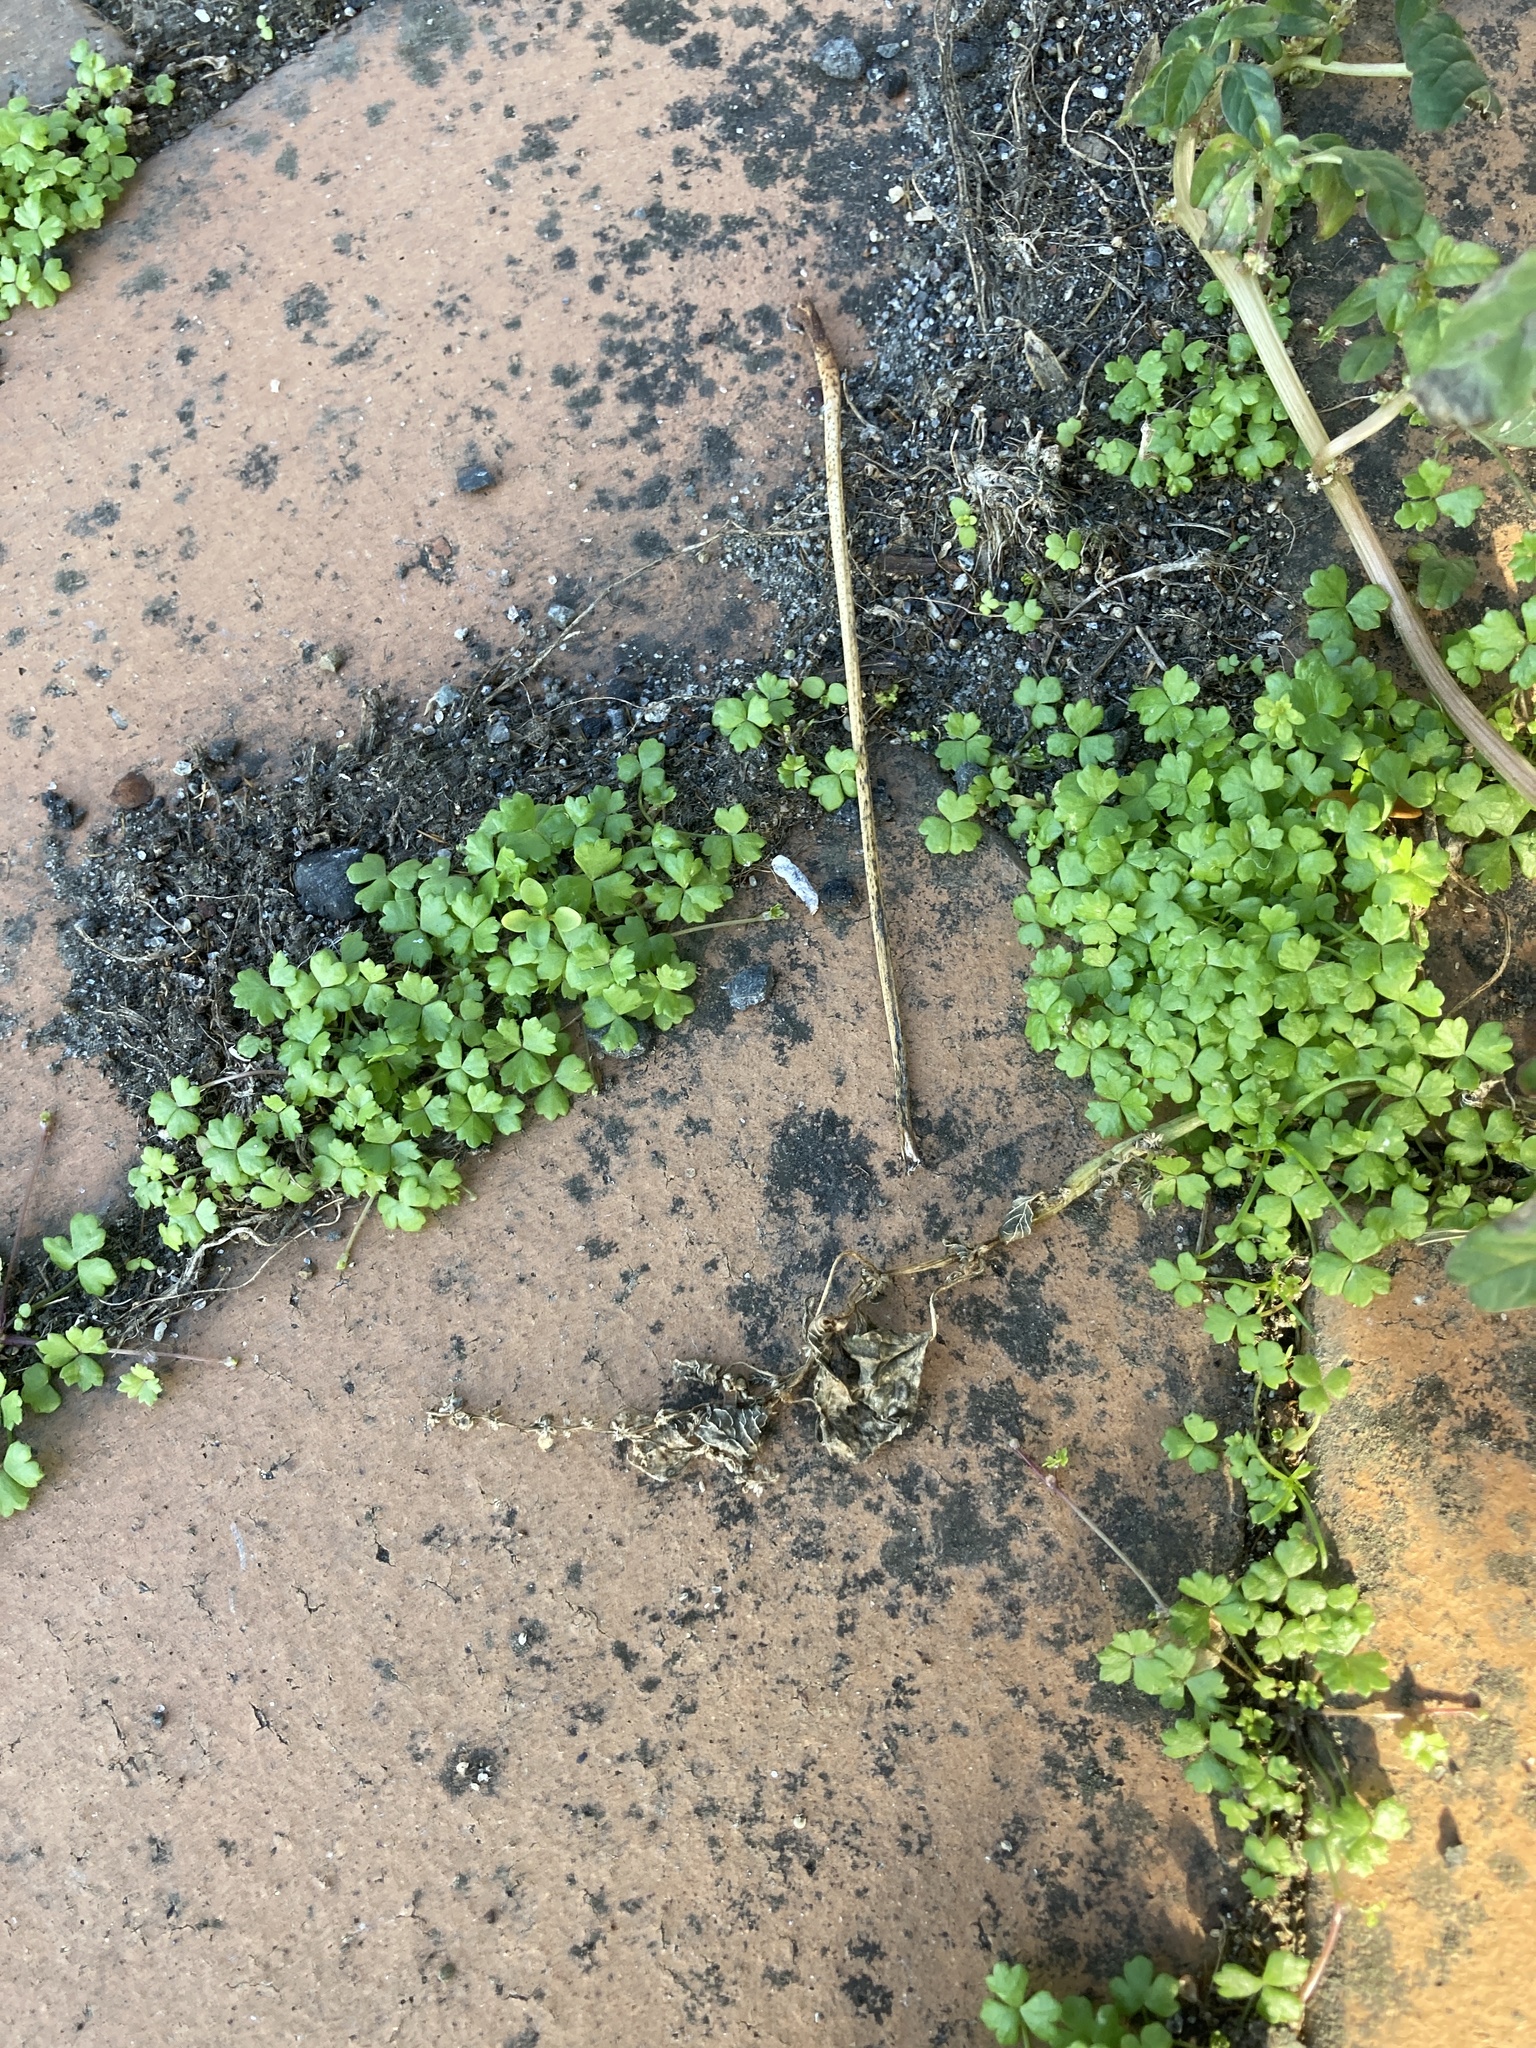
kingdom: Plantae
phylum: Tracheophyta
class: Magnoliopsida
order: Apiales
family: Araliaceae
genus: Hydrocotyle
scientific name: Hydrocotyle tripartita
